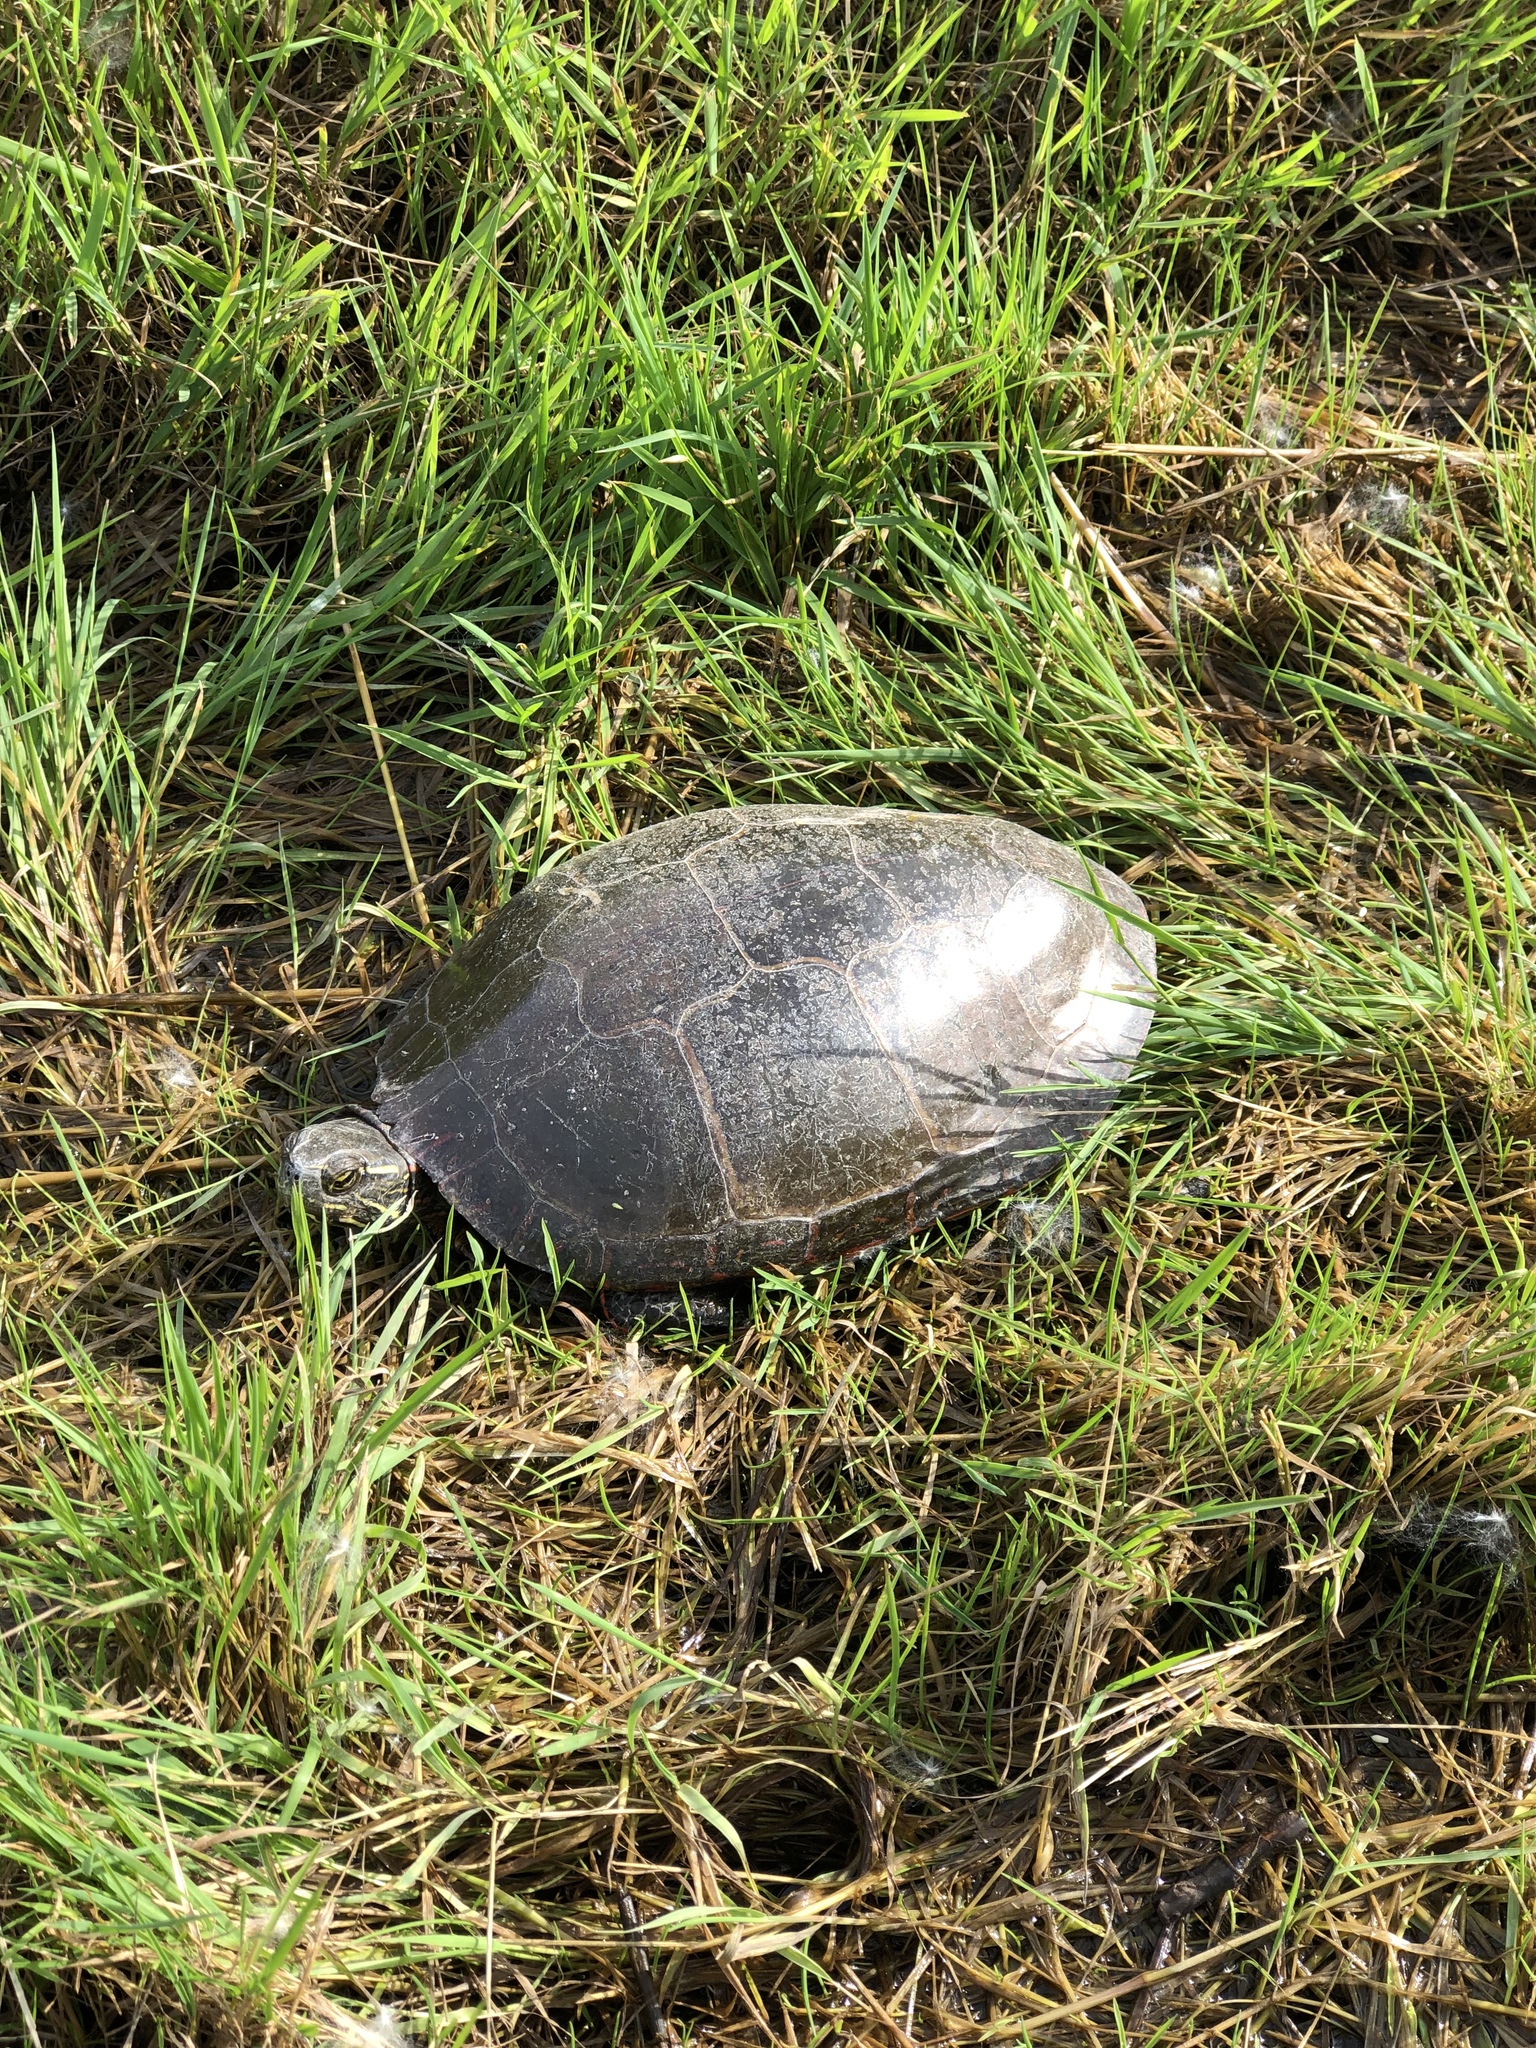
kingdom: Animalia
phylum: Chordata
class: Testudines
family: Emydidae
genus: Chrysemys
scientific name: Chrysemys picta
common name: Painted turtle
